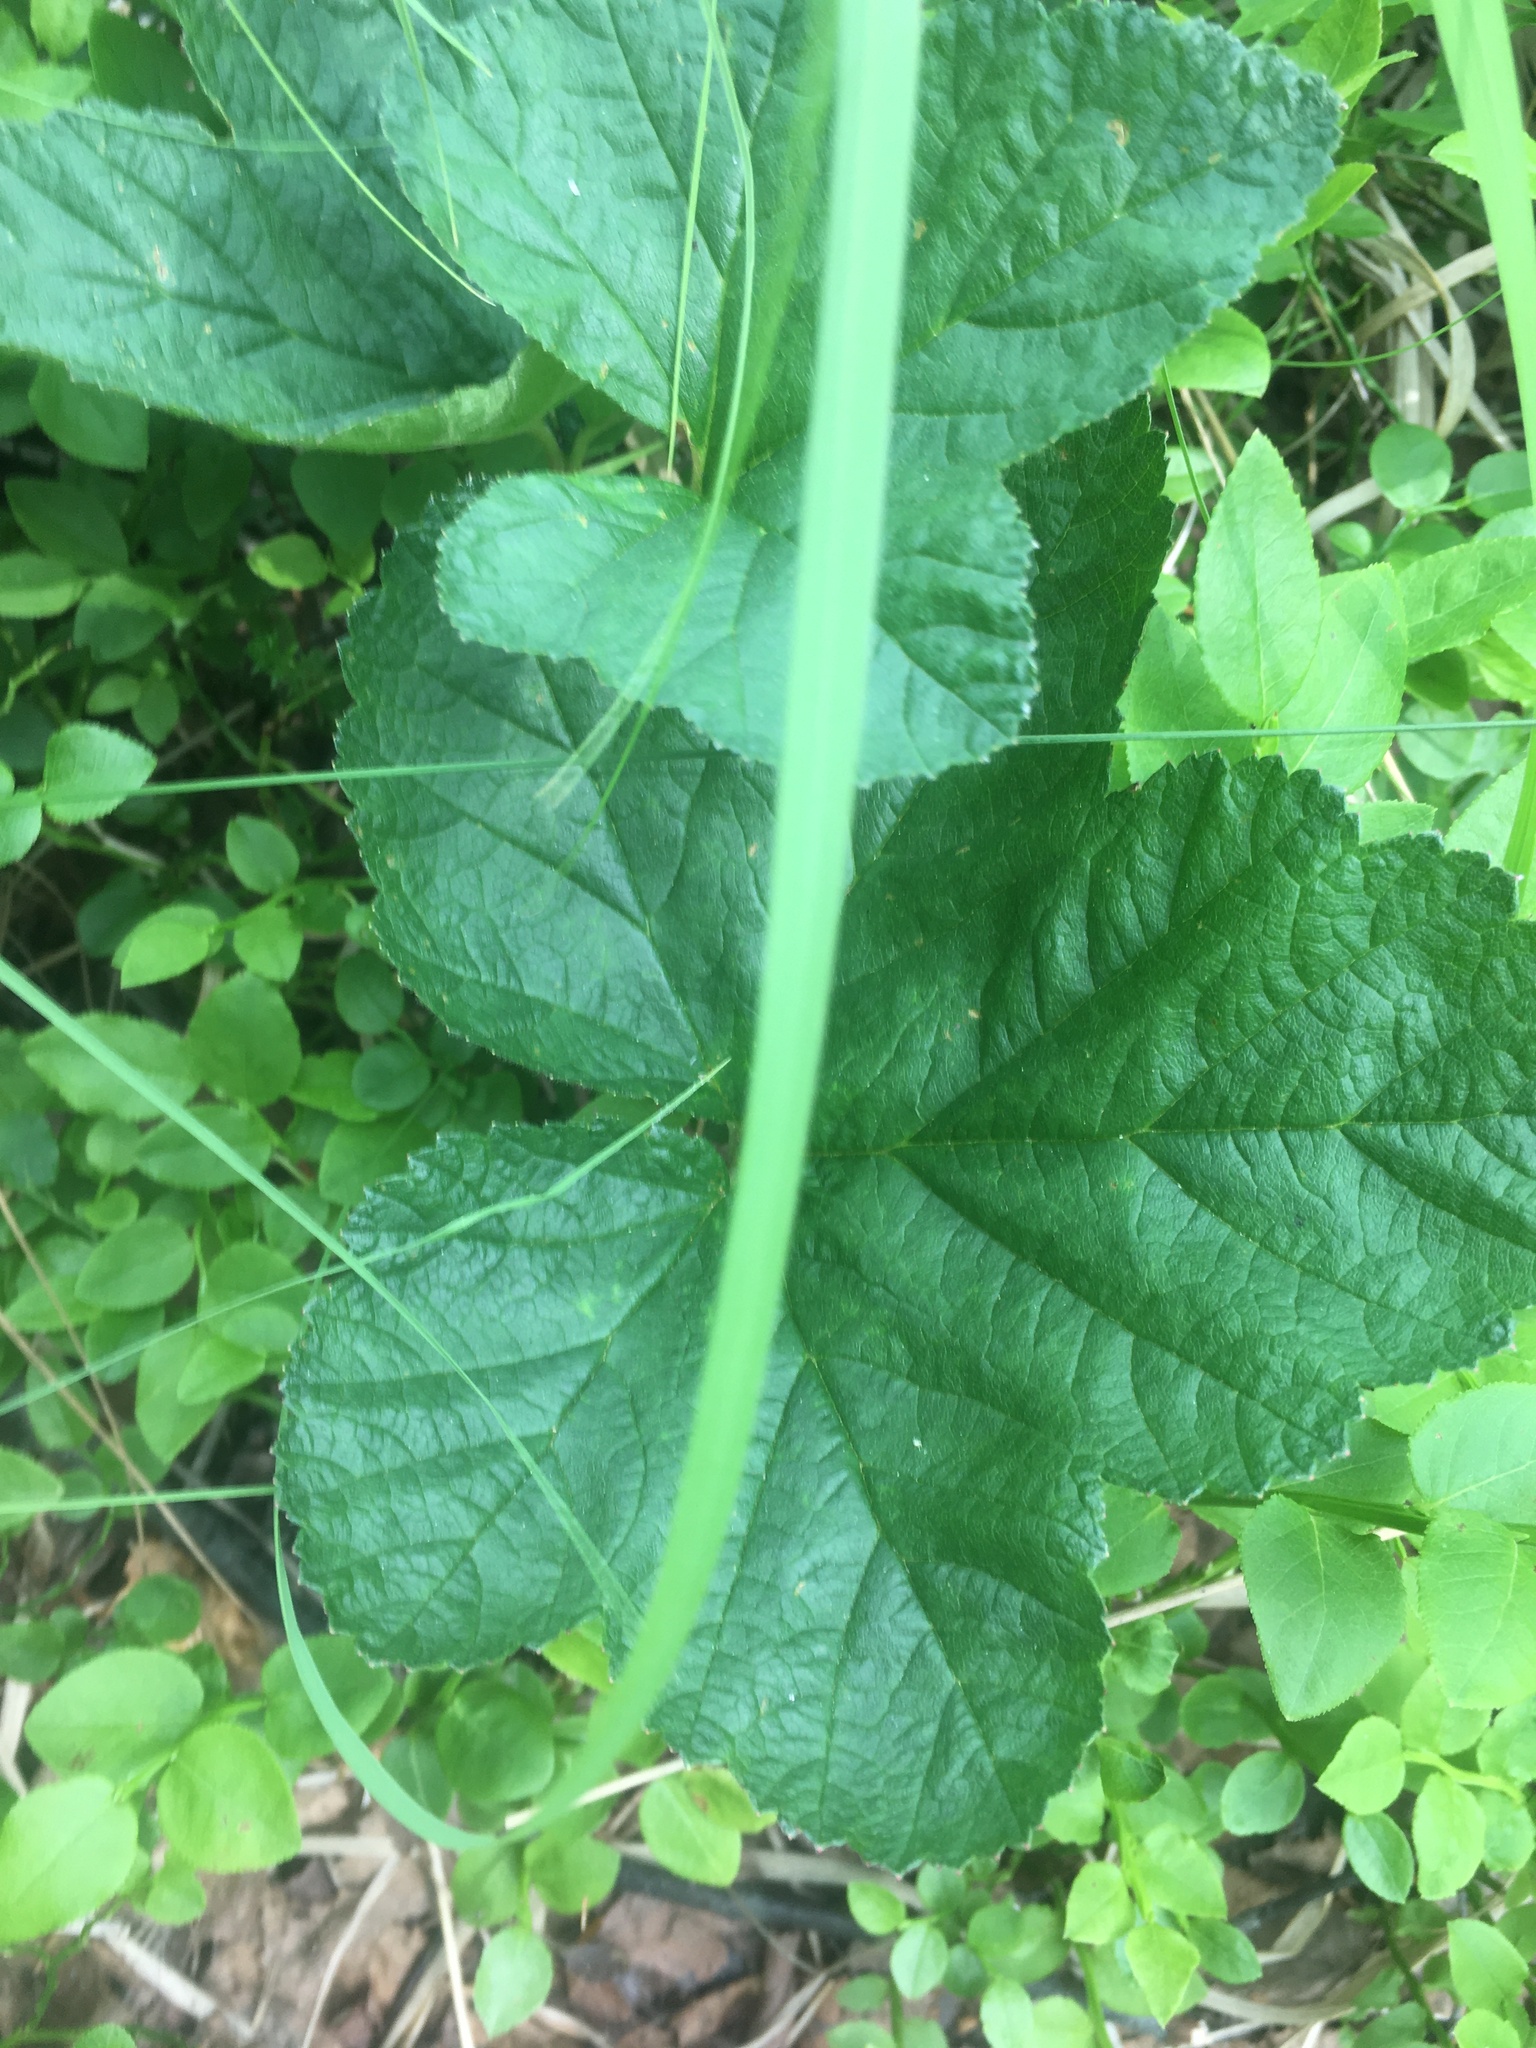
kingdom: Plantae
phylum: Tracheophyta
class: Magnoliopsida
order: Rosales
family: Rosaceae
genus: Rubus
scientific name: Rubus chamaemorus
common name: Cloudberry
